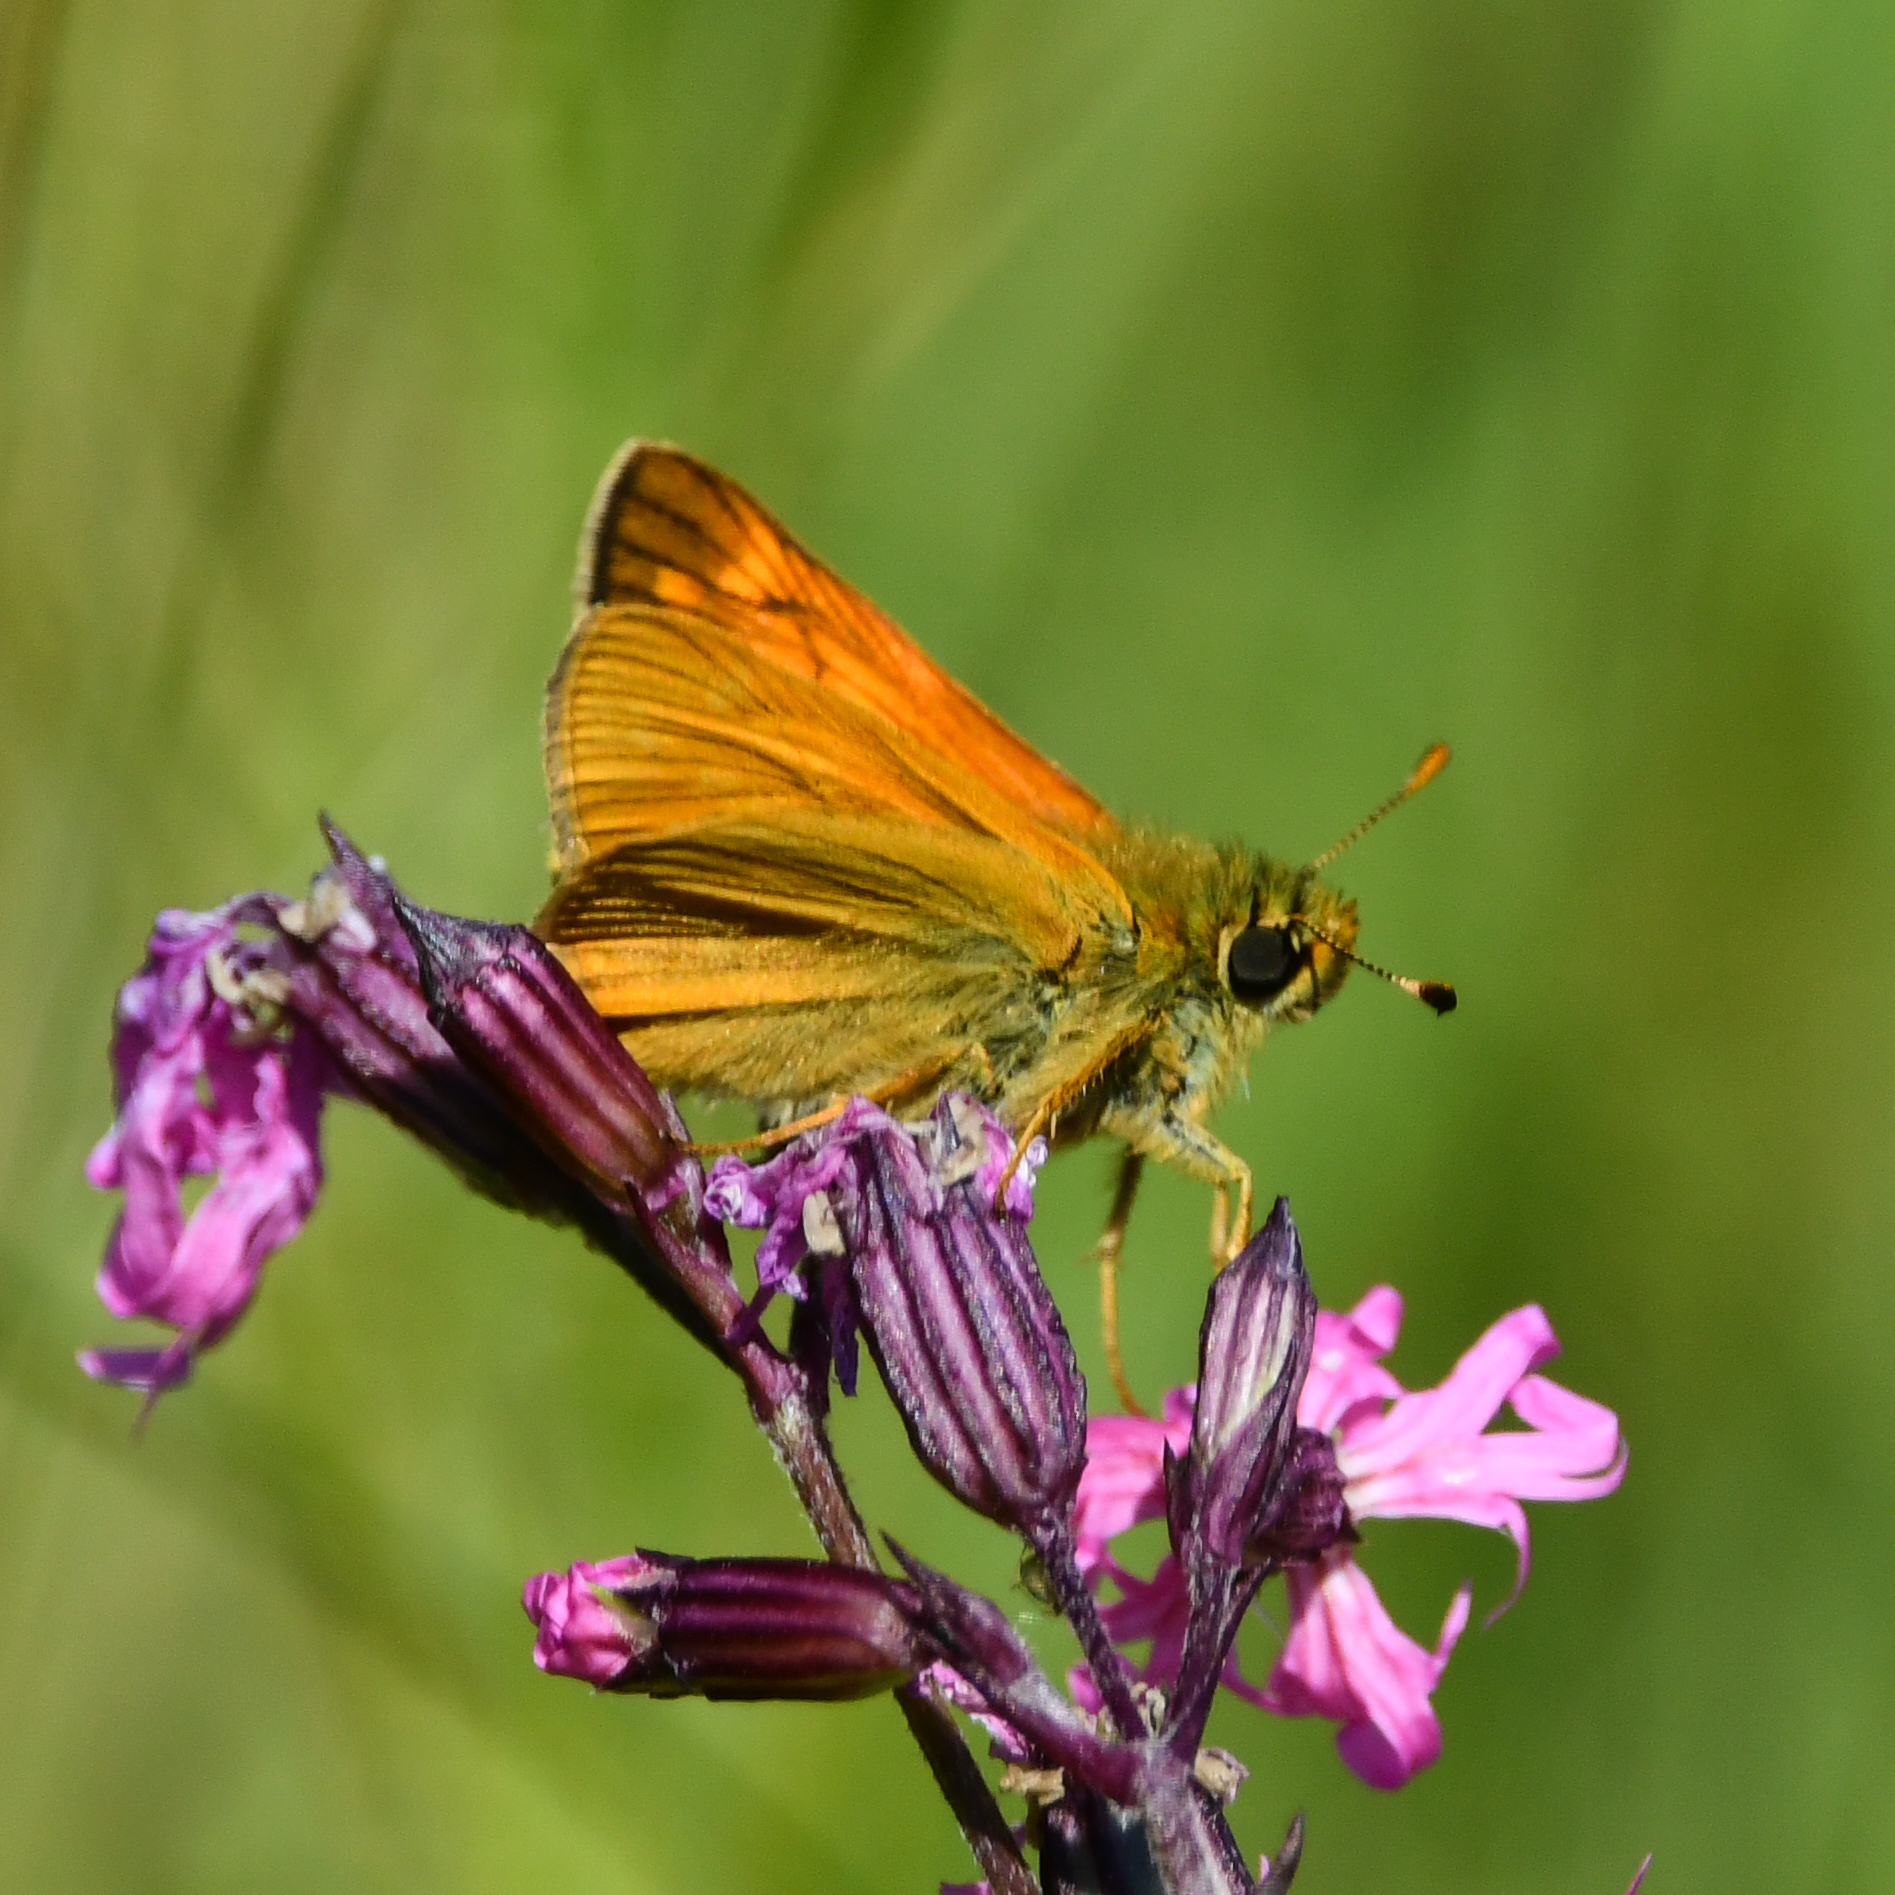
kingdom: Animalia
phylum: Arthropoda
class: Insecta
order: Lepidoptera
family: Hesperiidae
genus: Ochlodes
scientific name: Ochlodes venata
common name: Large skipper
